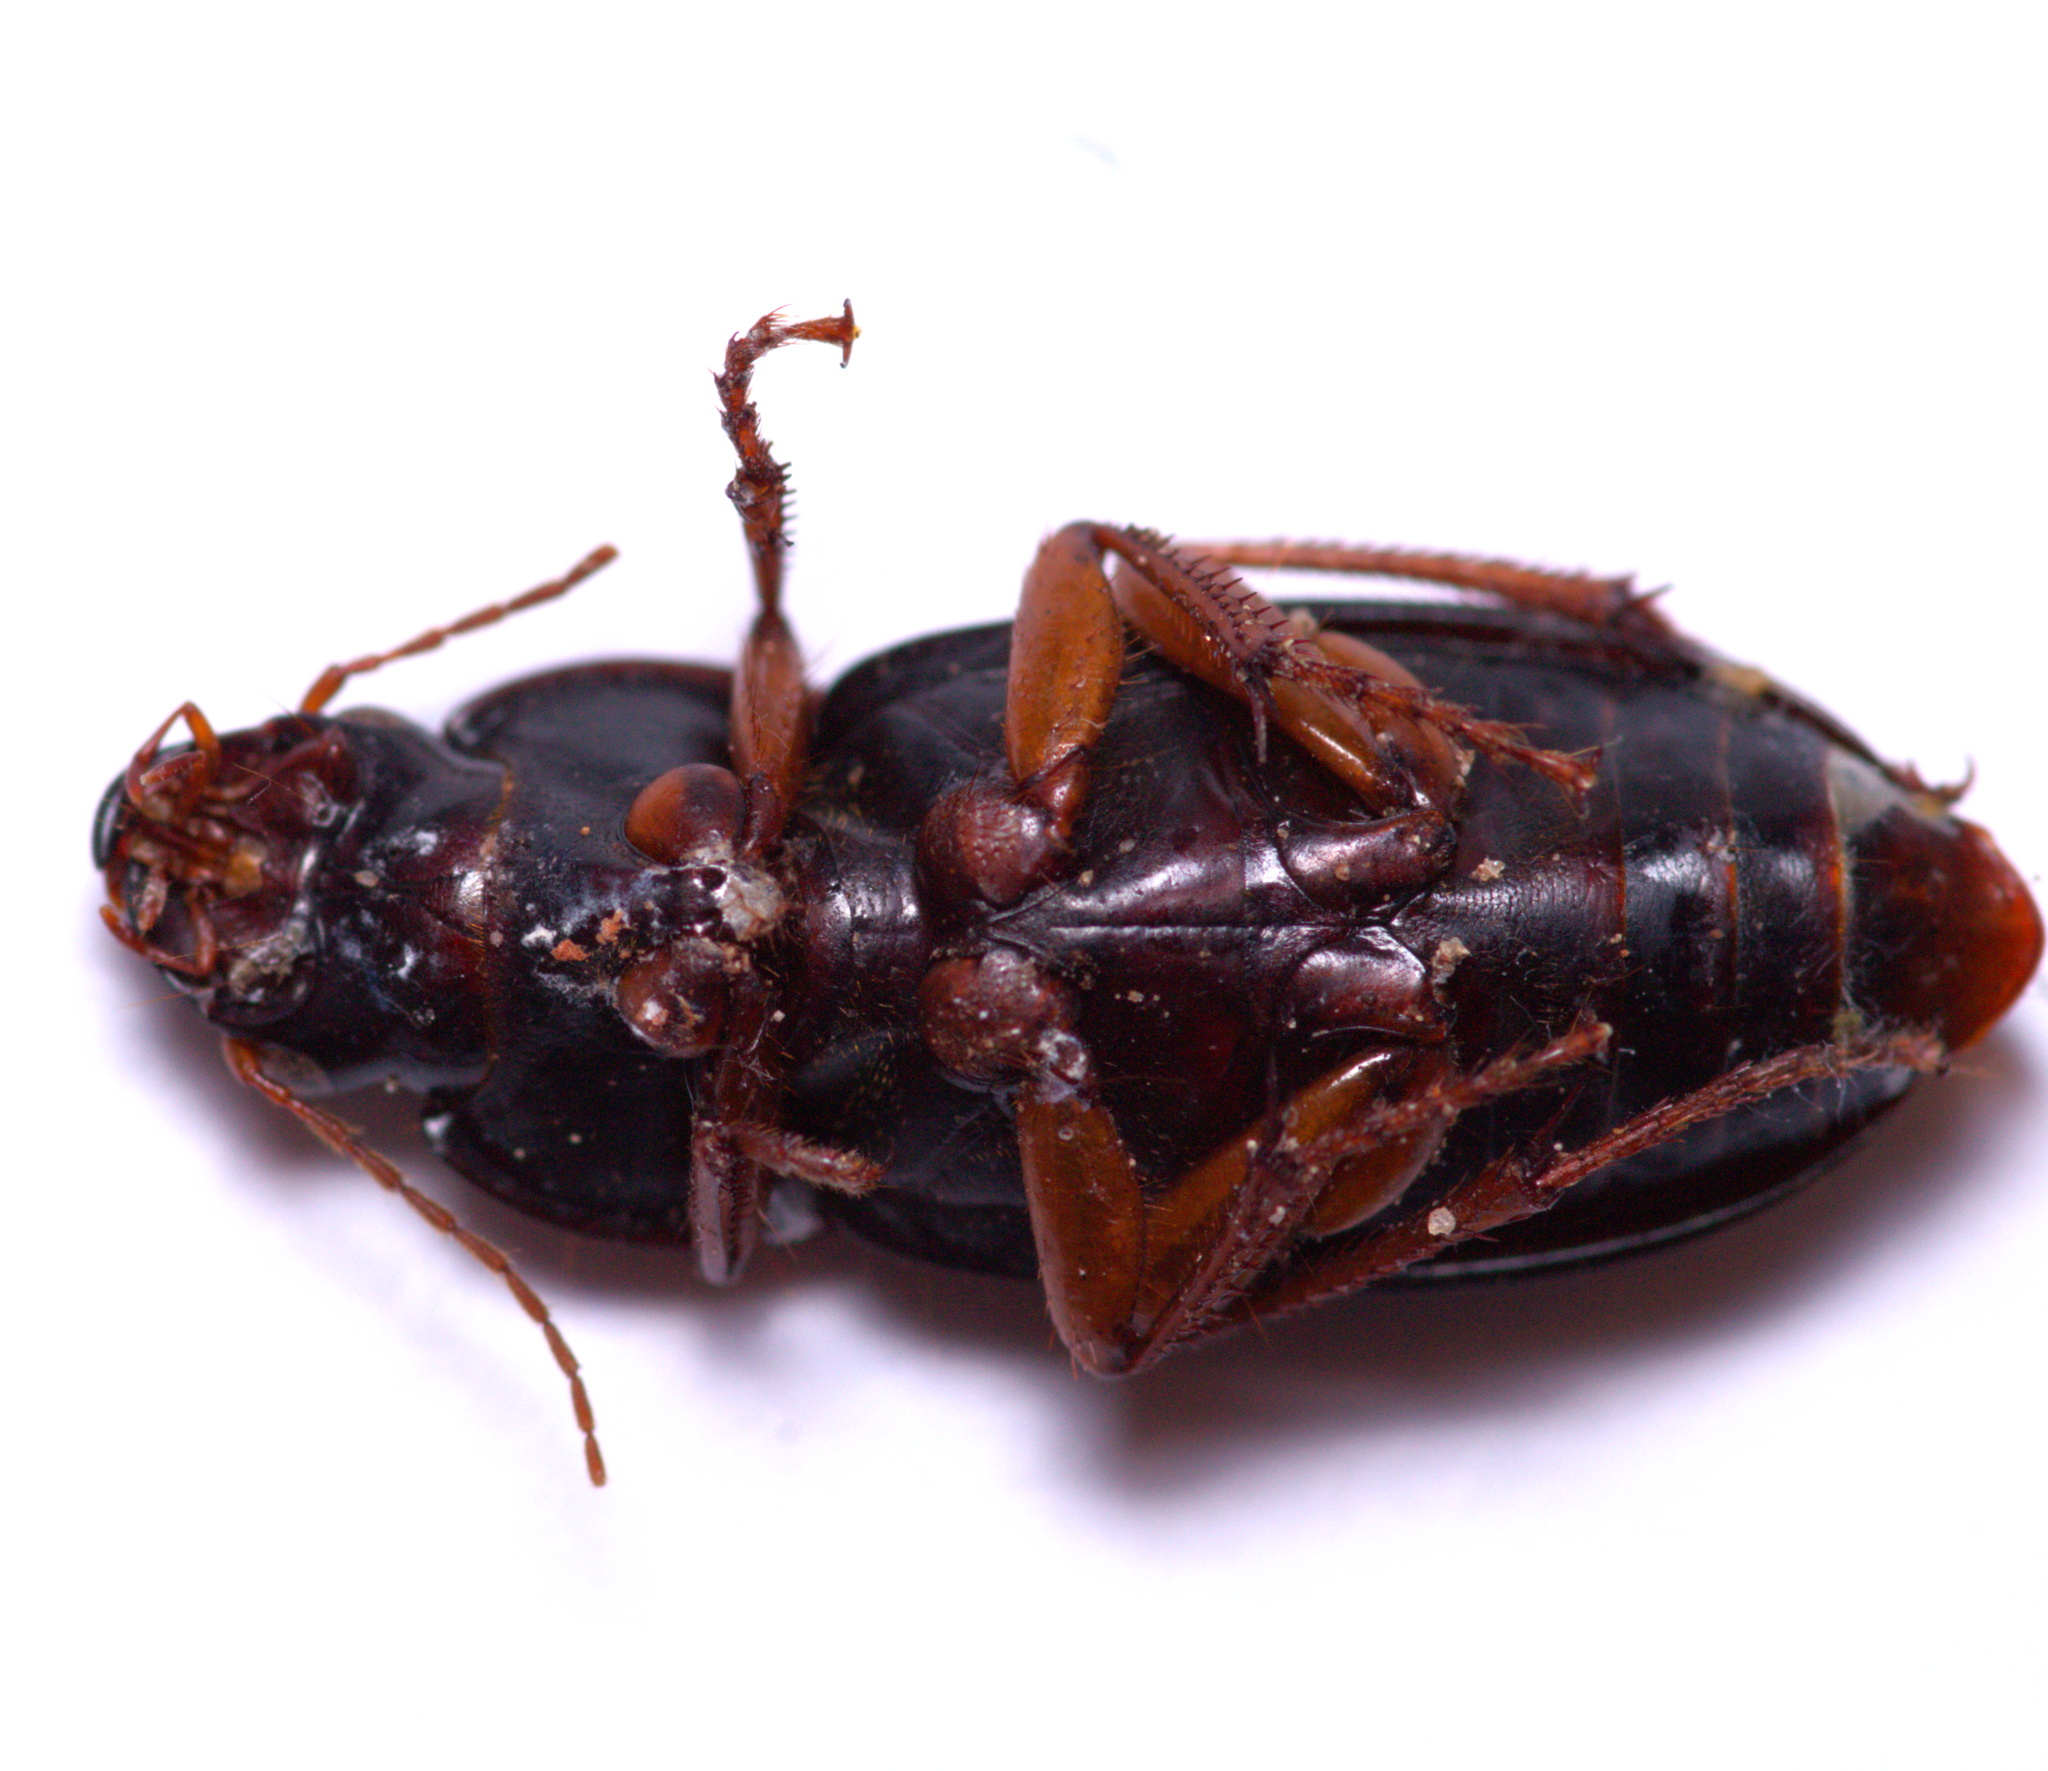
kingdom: Animalia
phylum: Arthropoda
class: Insecta
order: Coleoptera
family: Carabidae
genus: Harpalus
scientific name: Harpalus pensylvanicus
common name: Pennsylvania dingy ground beetle
